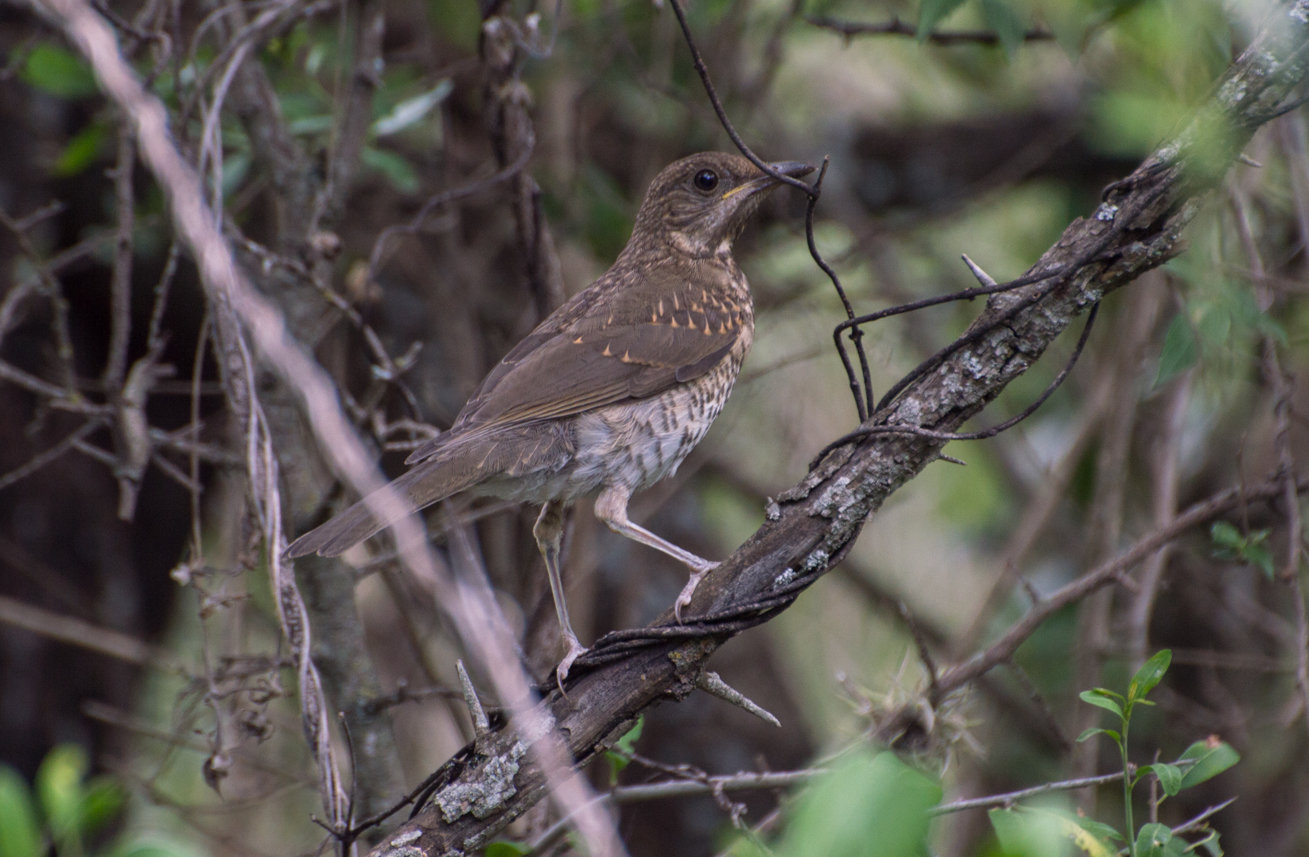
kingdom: Animalia
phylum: Chordata
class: Aves
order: Passeriformes
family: Turdidae
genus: Turdus
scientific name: Turdus amaurochalinus
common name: Creamy-bellied thrush
